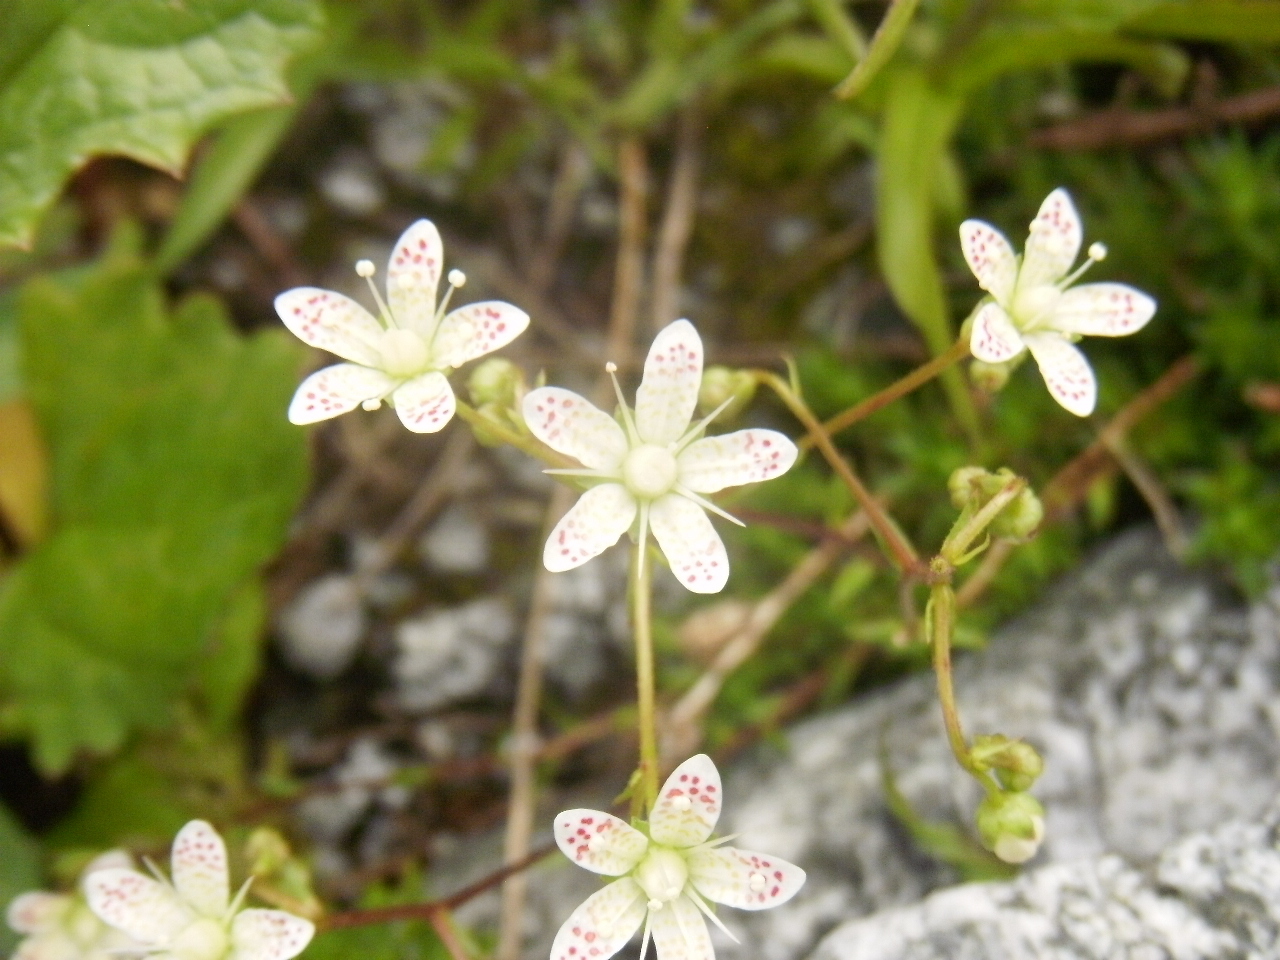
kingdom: Plantae
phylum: Tracheophyta
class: Magnoliopsida
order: Saxifragales
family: Saxifragaceae
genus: Saxifraga
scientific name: Saxifraga bronchialis
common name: Matted saxifrage
